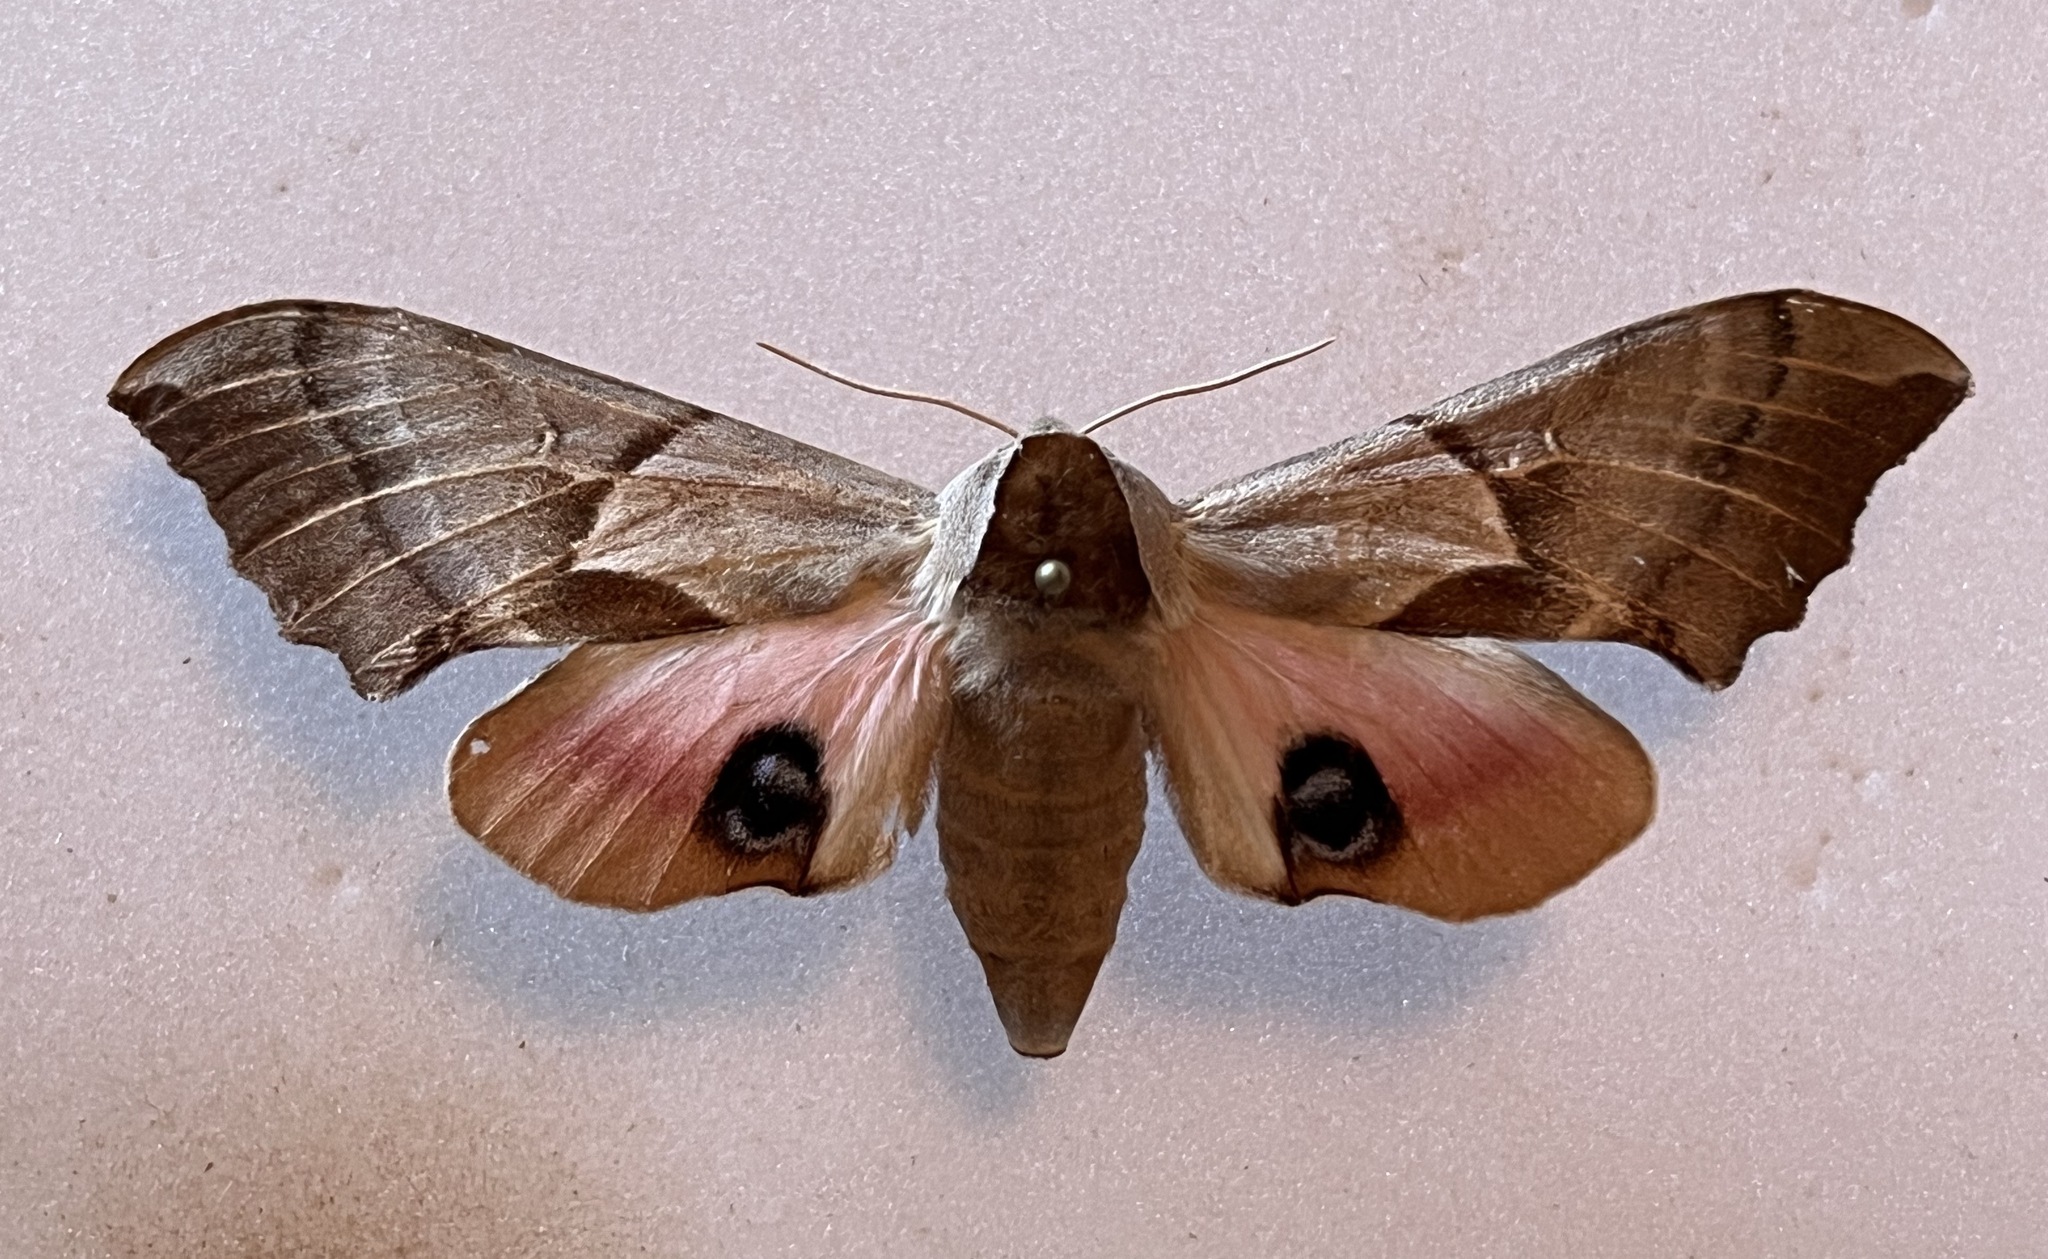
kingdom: Animalia
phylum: Arthropoda
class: Insecta
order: Lepidoptera
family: Sphingidae
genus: Smerinthus
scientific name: Smerinthus cerisyi
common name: Cerisy's sphinx moth
